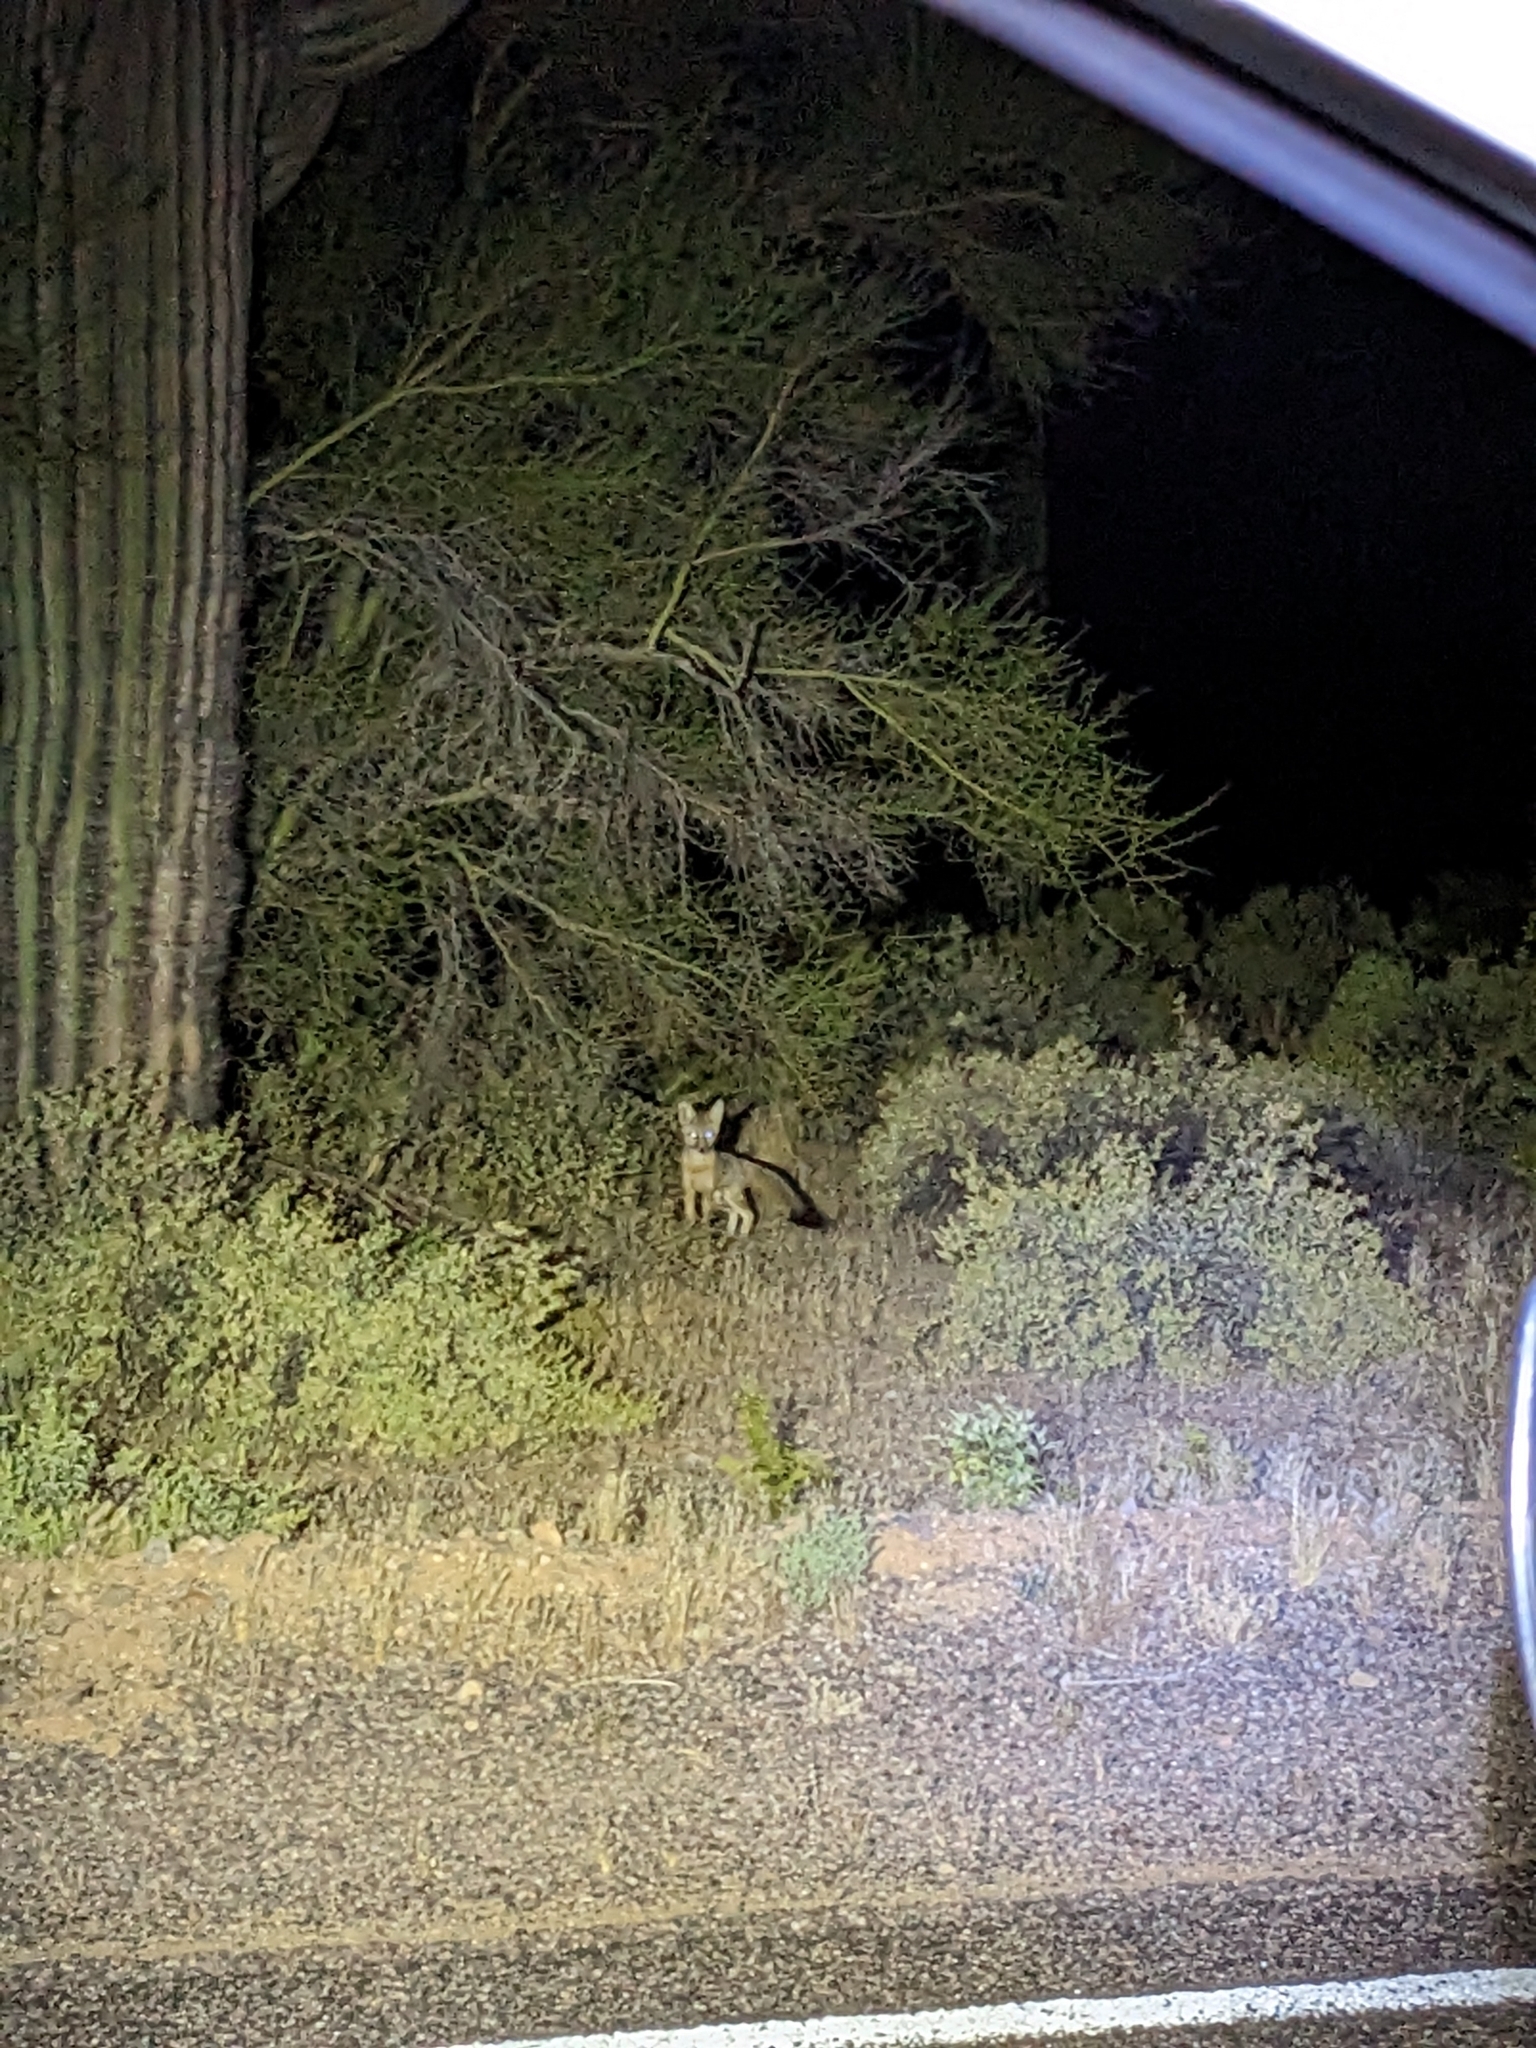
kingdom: Animalia
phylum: Chordata
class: Mammalia
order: Carnivora
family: Canidae
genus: Urocyon
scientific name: Urocyon cinereoargenteus
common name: Gray fox
